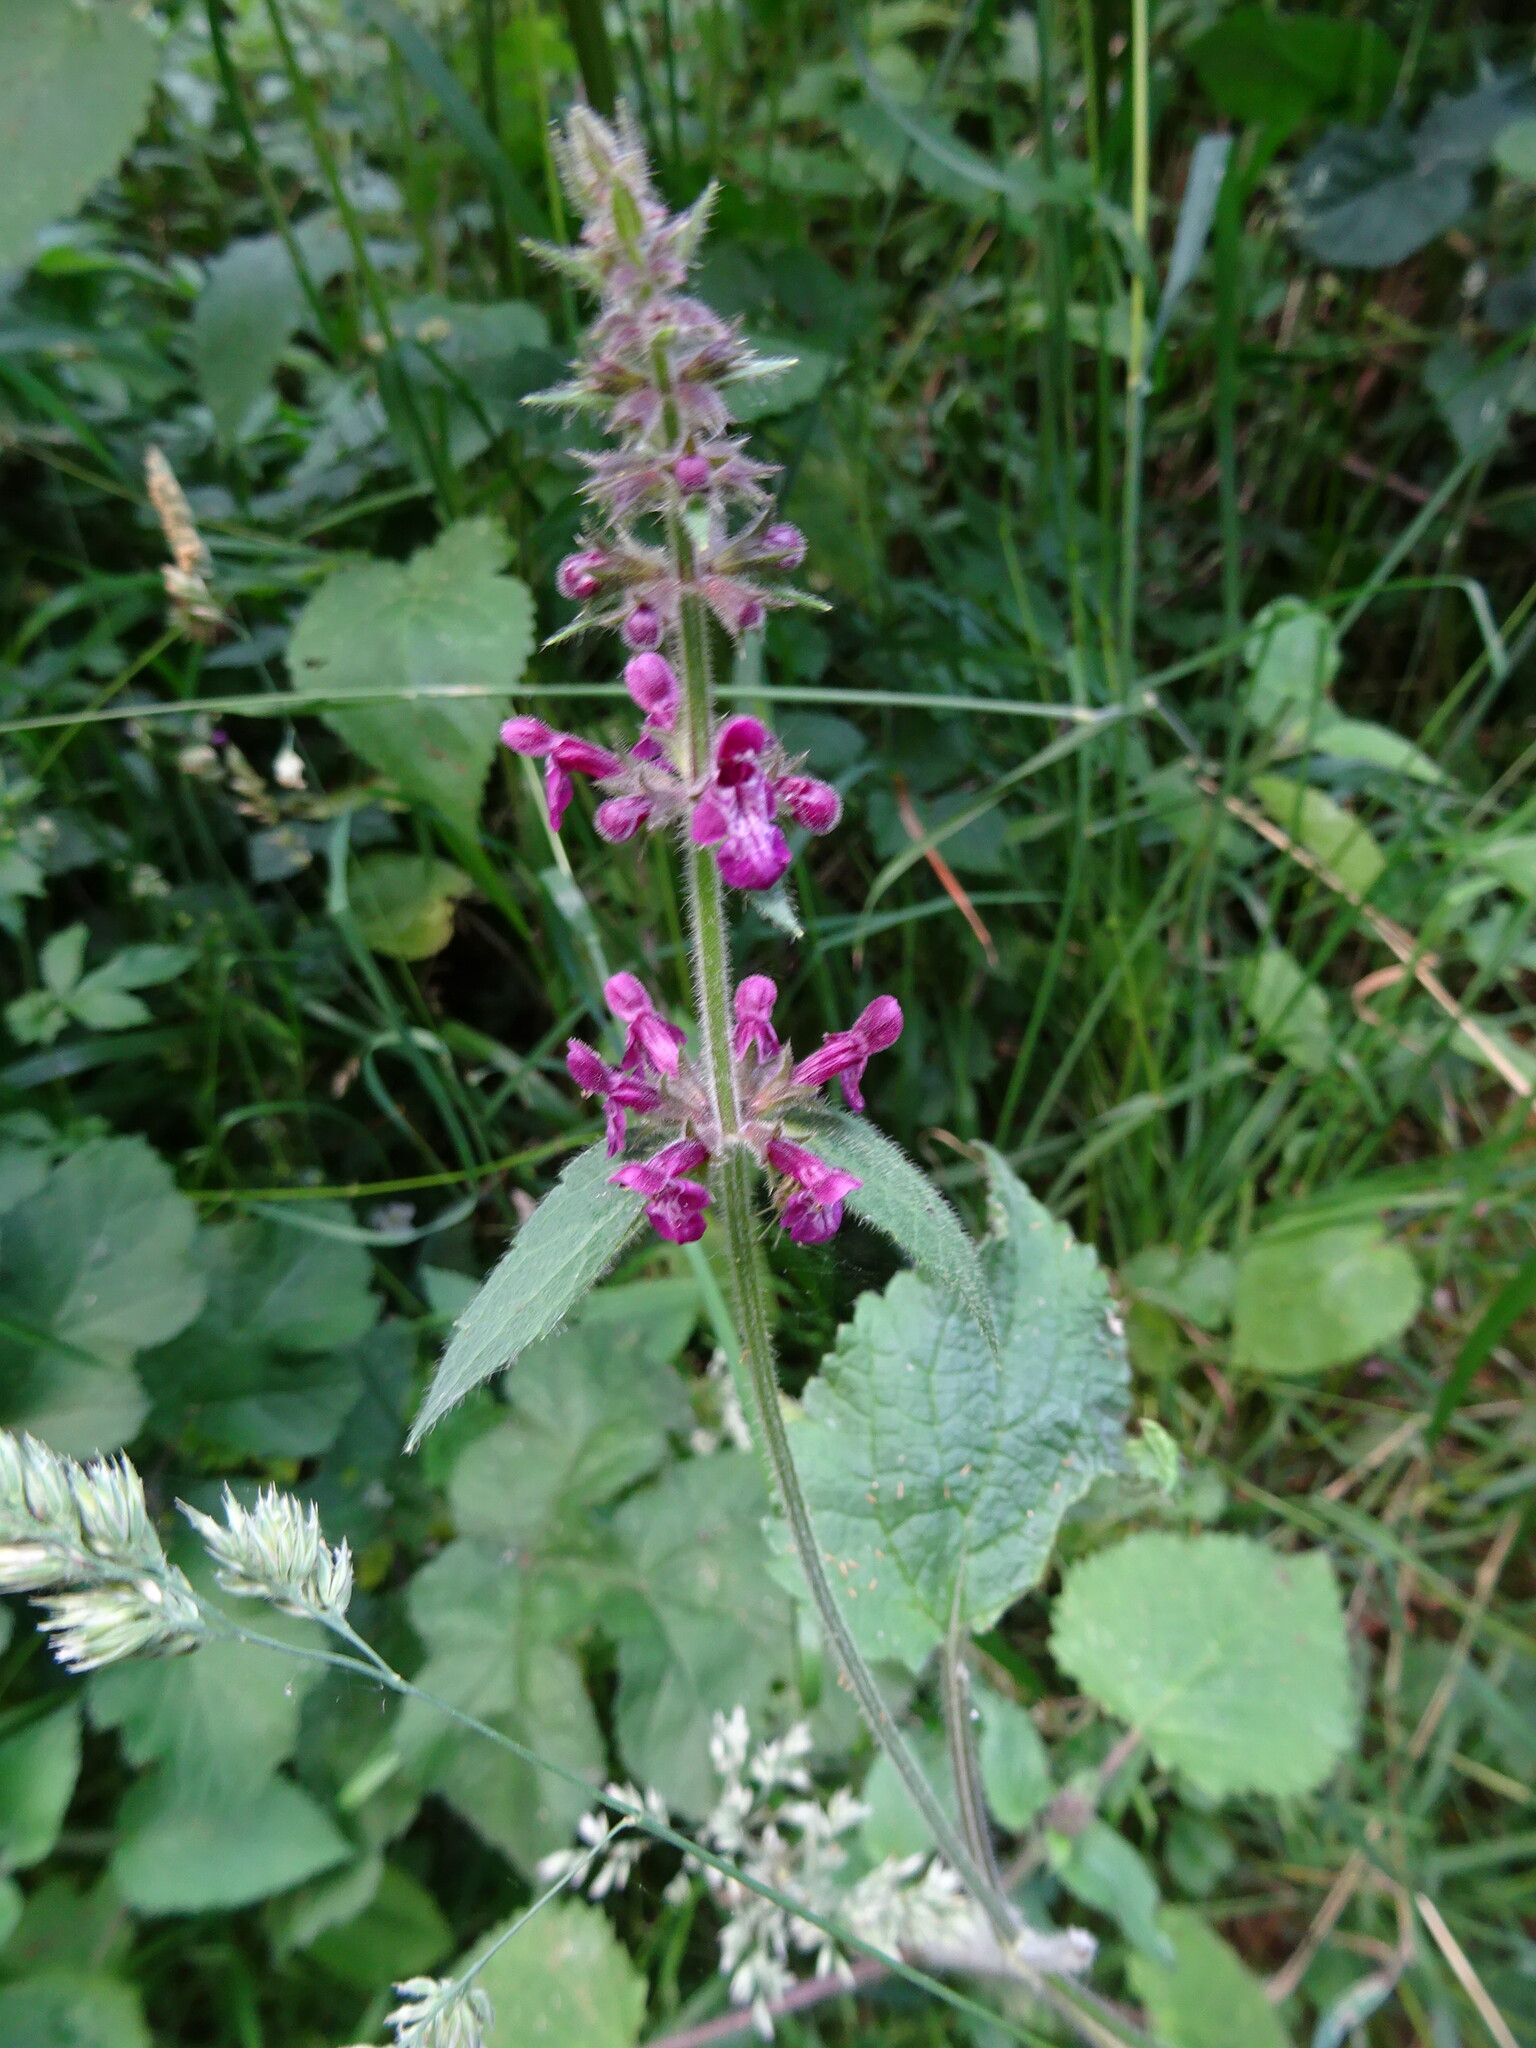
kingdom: Plantae
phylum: Tracheophyta
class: Magnoliopsida
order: Lamiales
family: Lamiaceae
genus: Stachys
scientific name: Stachys sylvatica
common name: Hedge woundwort
